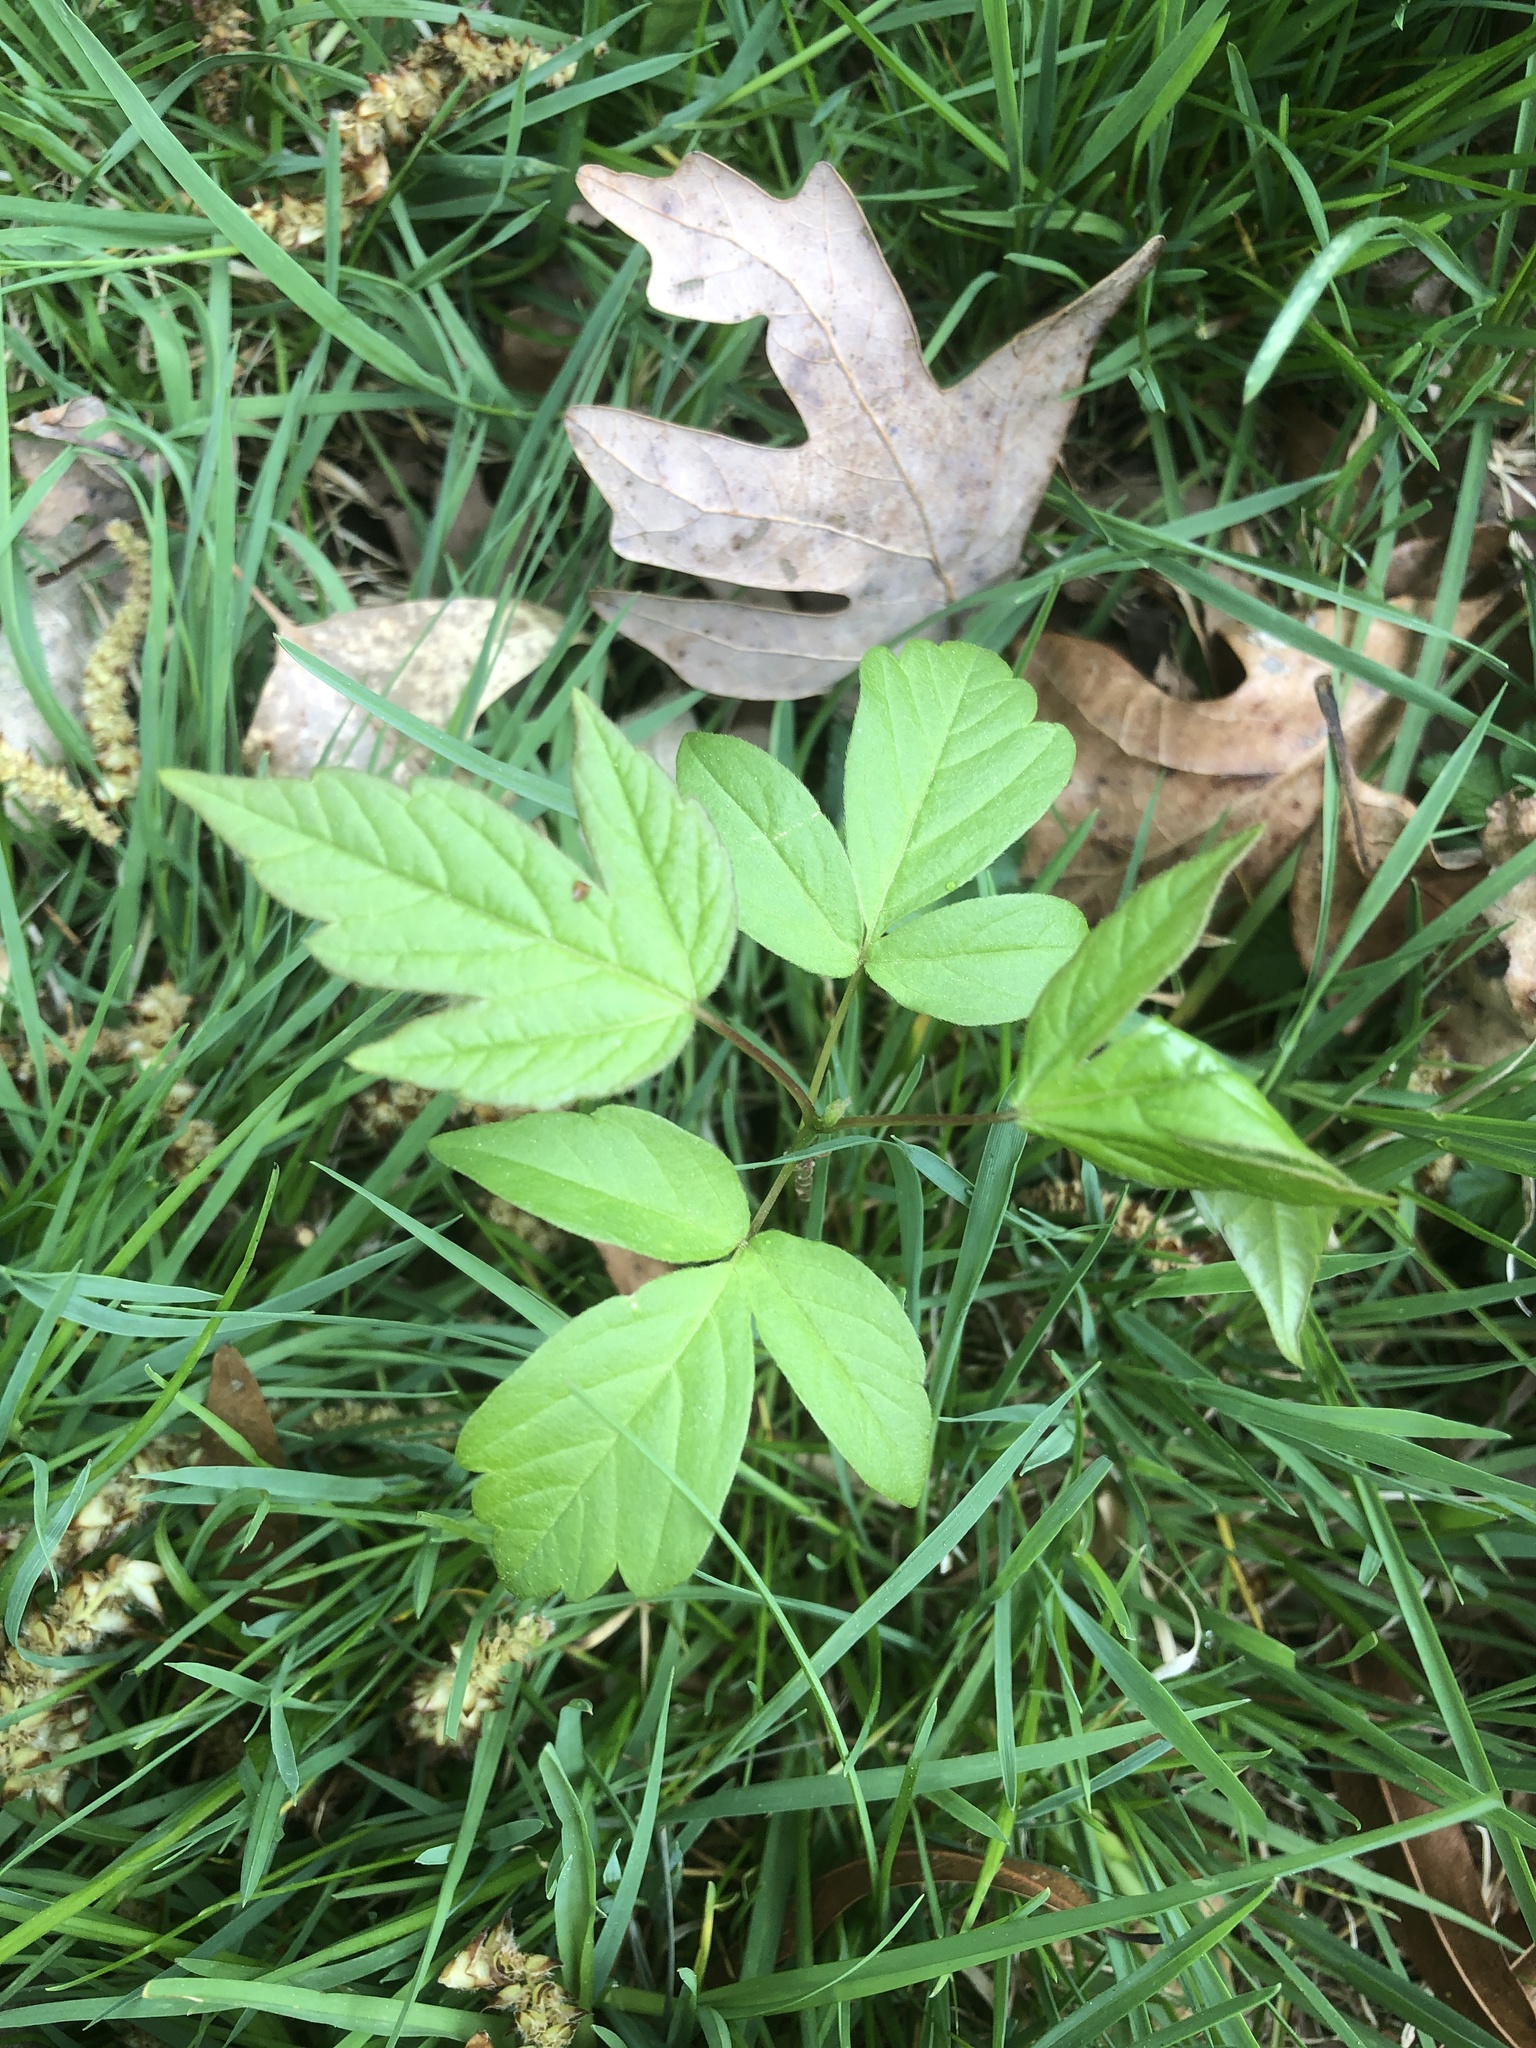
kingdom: Plantae
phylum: Tracheophyta
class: Magnoliopsida
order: Sapindales
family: Sapindaceae
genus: Acer
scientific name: Acer negundo
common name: Ashleaf maple
